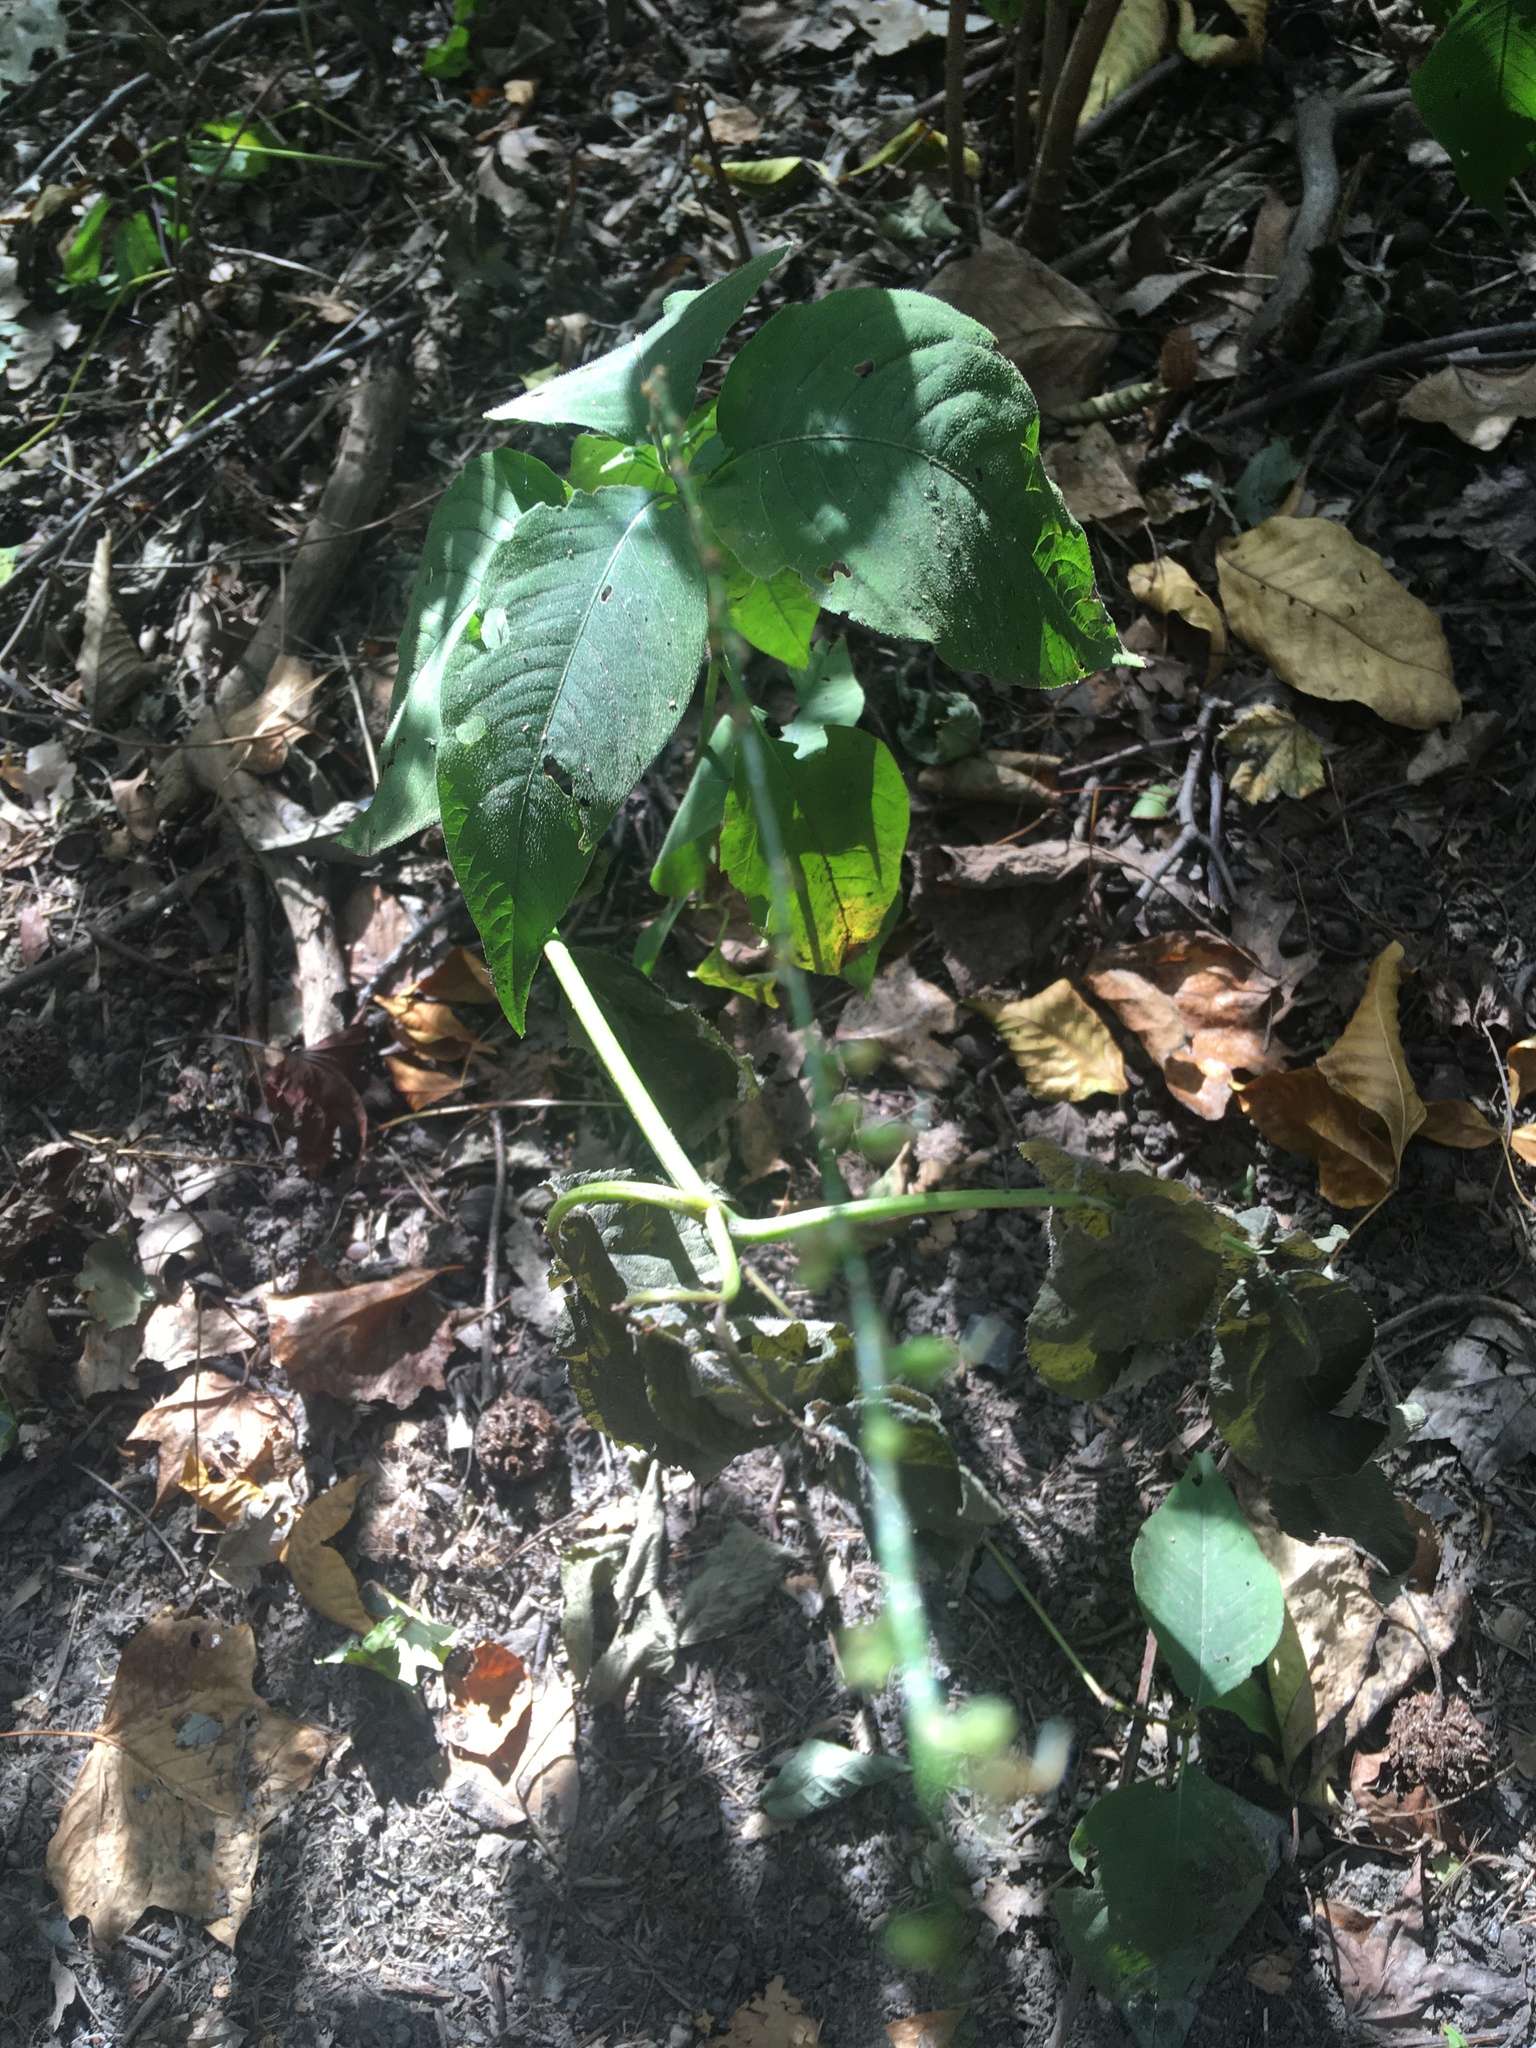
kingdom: Plantae
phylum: Tracheophyta
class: Magnoliopsida
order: Caryophyllales
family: Polygonaceae
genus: Persicaria
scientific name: Persicaria virginiana
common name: Jumpseed
